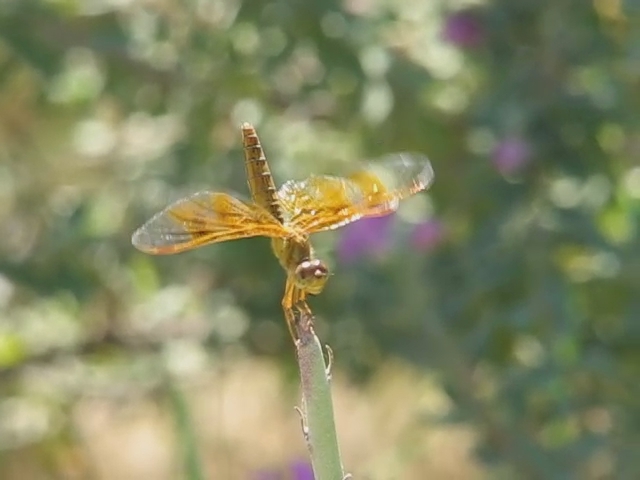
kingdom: Animalia
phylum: Arthropoda
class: Insecta
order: Odonata
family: Libellulidae
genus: Perithemis
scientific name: Perithemis intensa
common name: Mexican amberwing
